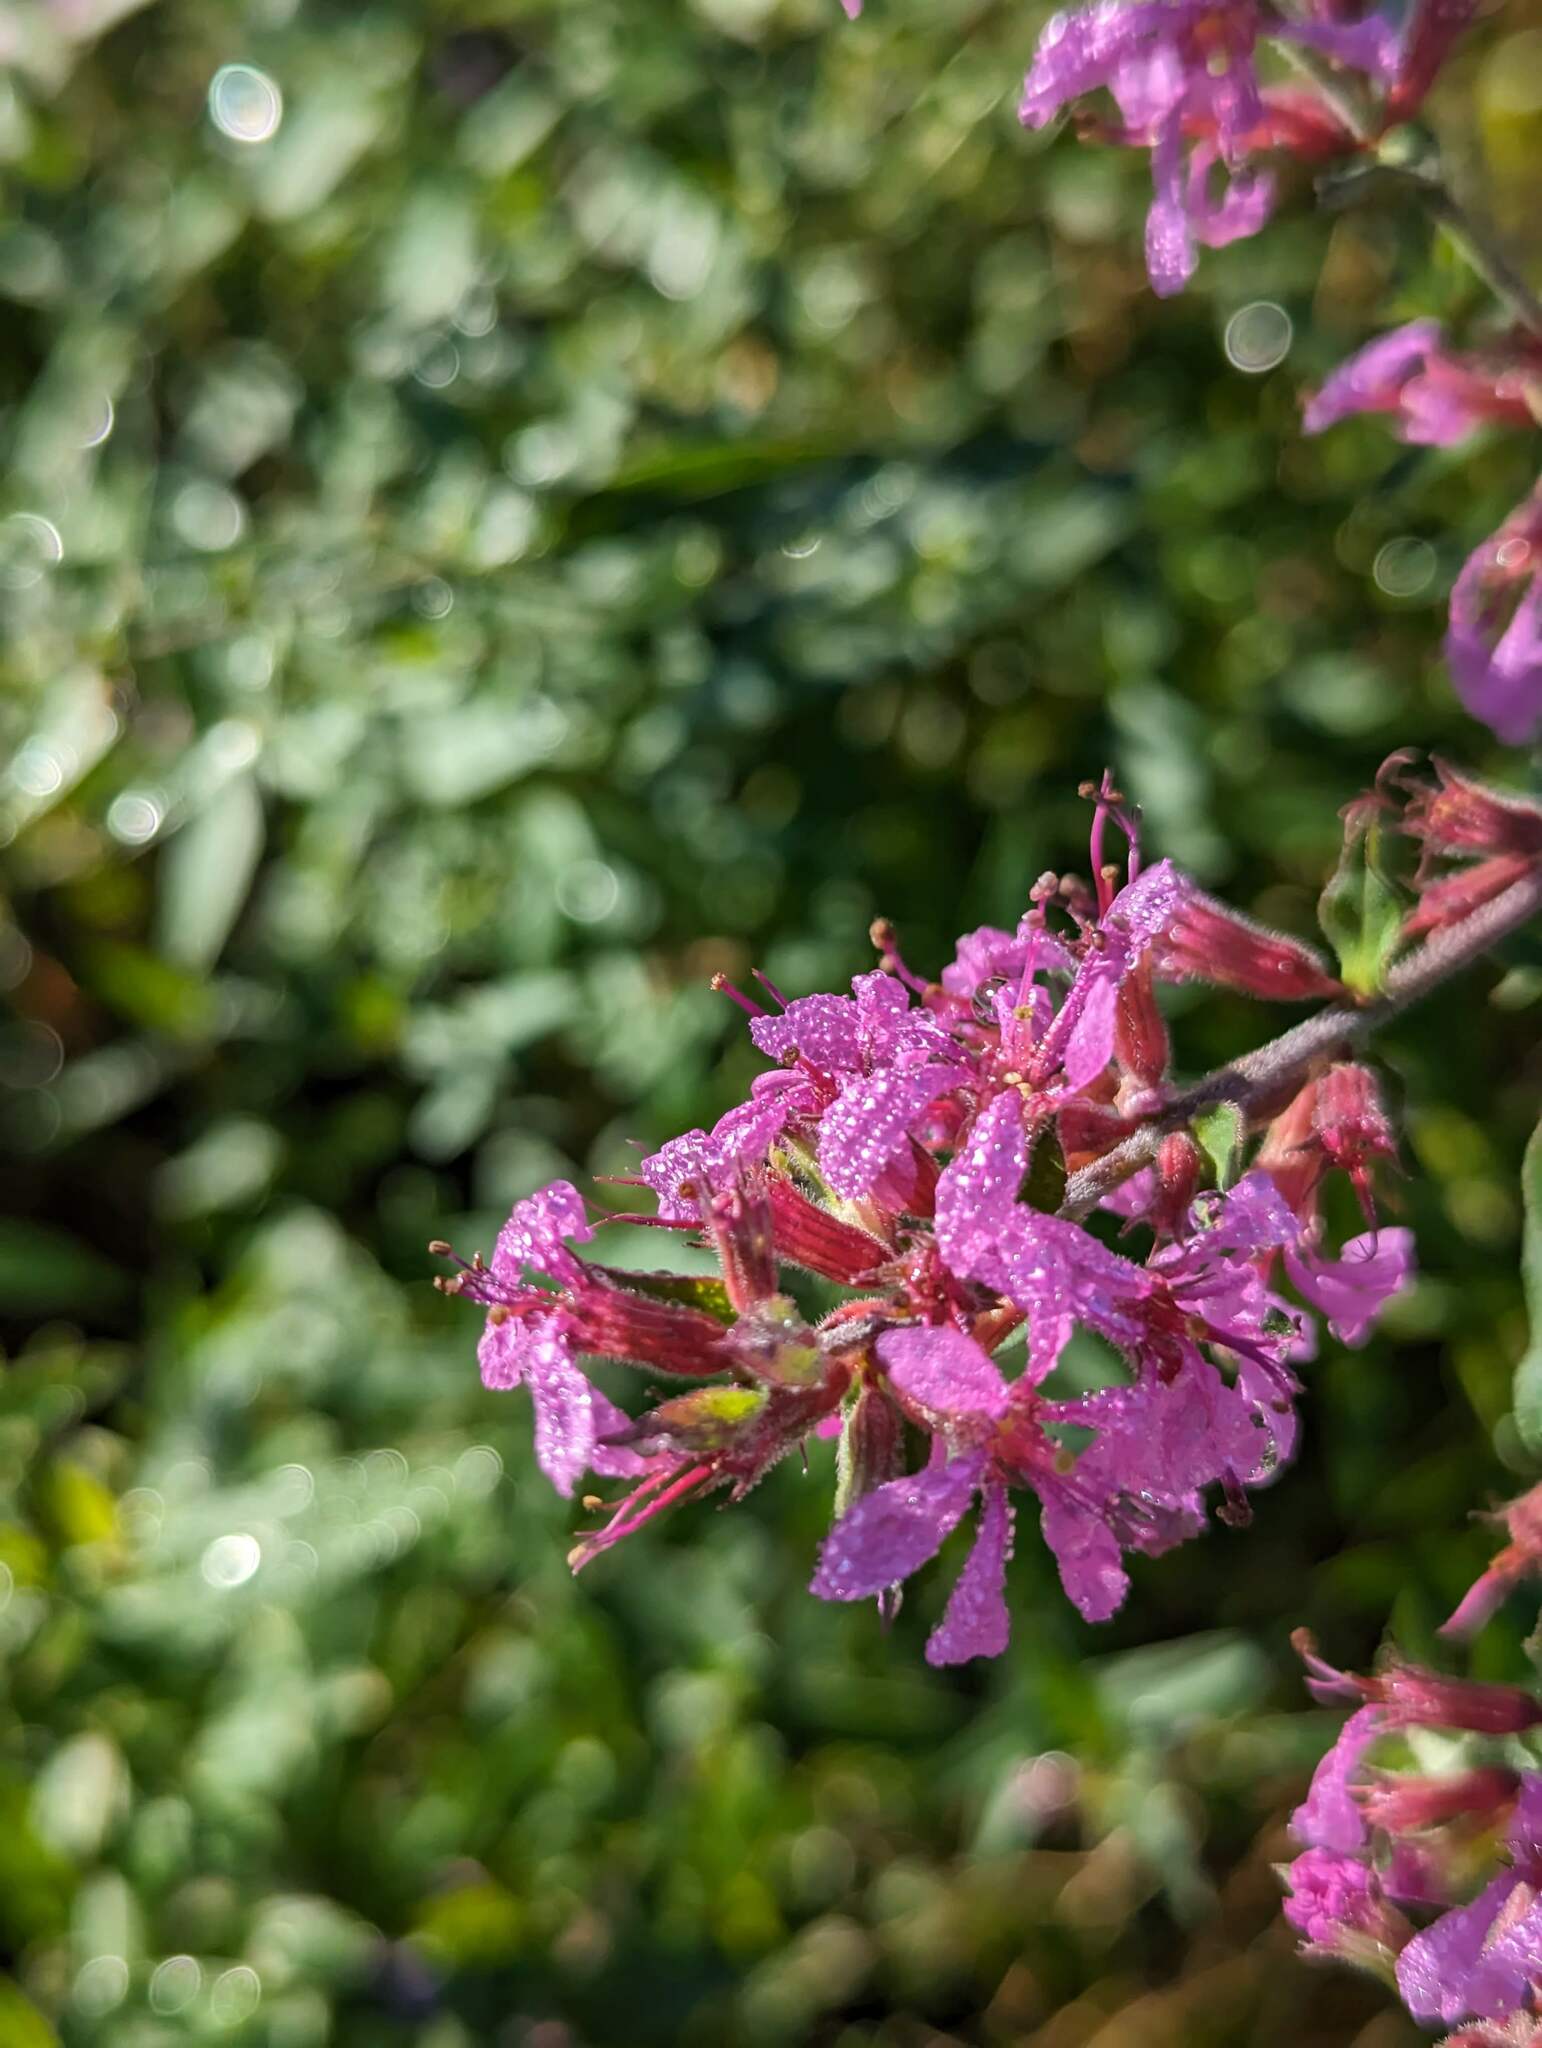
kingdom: Plantae
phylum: Tracheophyta
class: Magnoliopsida
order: Myrtales
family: Lythraceae
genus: Lythrum
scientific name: Lythrum salicaria
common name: Purple loosestrife
